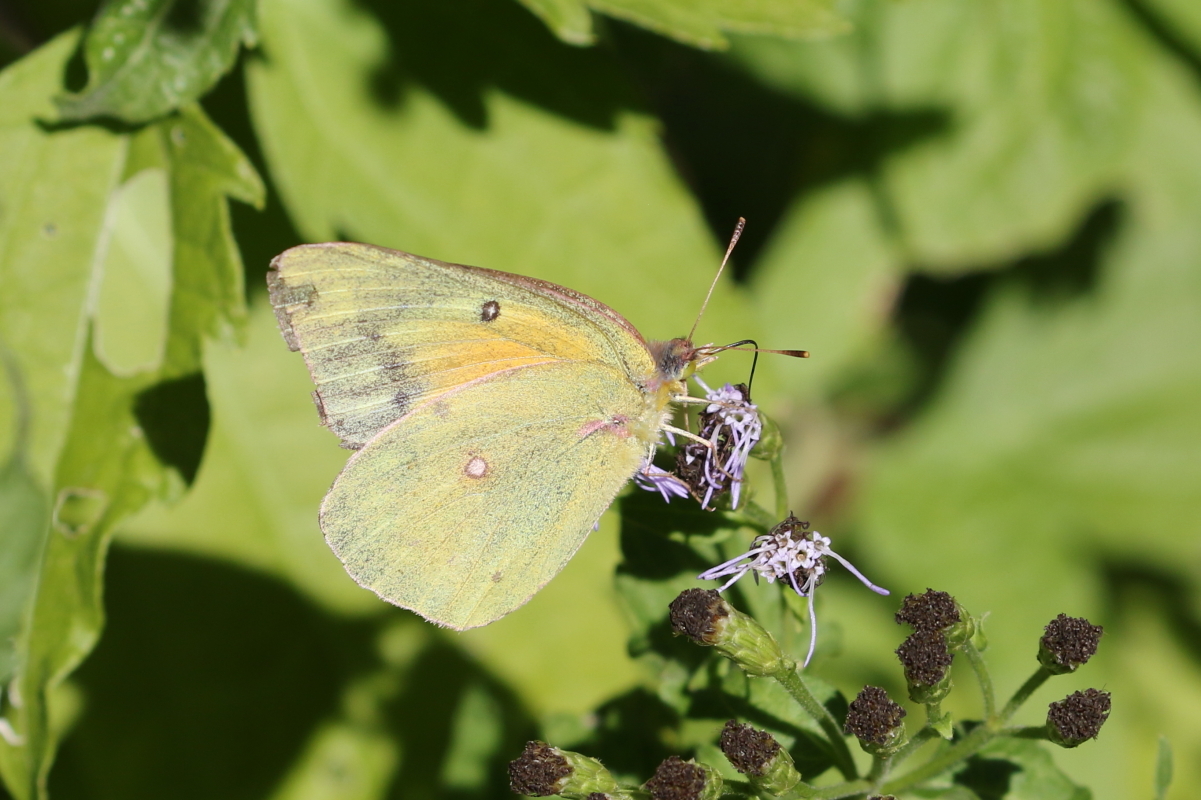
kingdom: Animalia
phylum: Arthropoda
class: Insecta
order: Lepidoptera
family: Pieridae
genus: Colias
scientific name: Colias eurytheme
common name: Alfalfa butterfly
